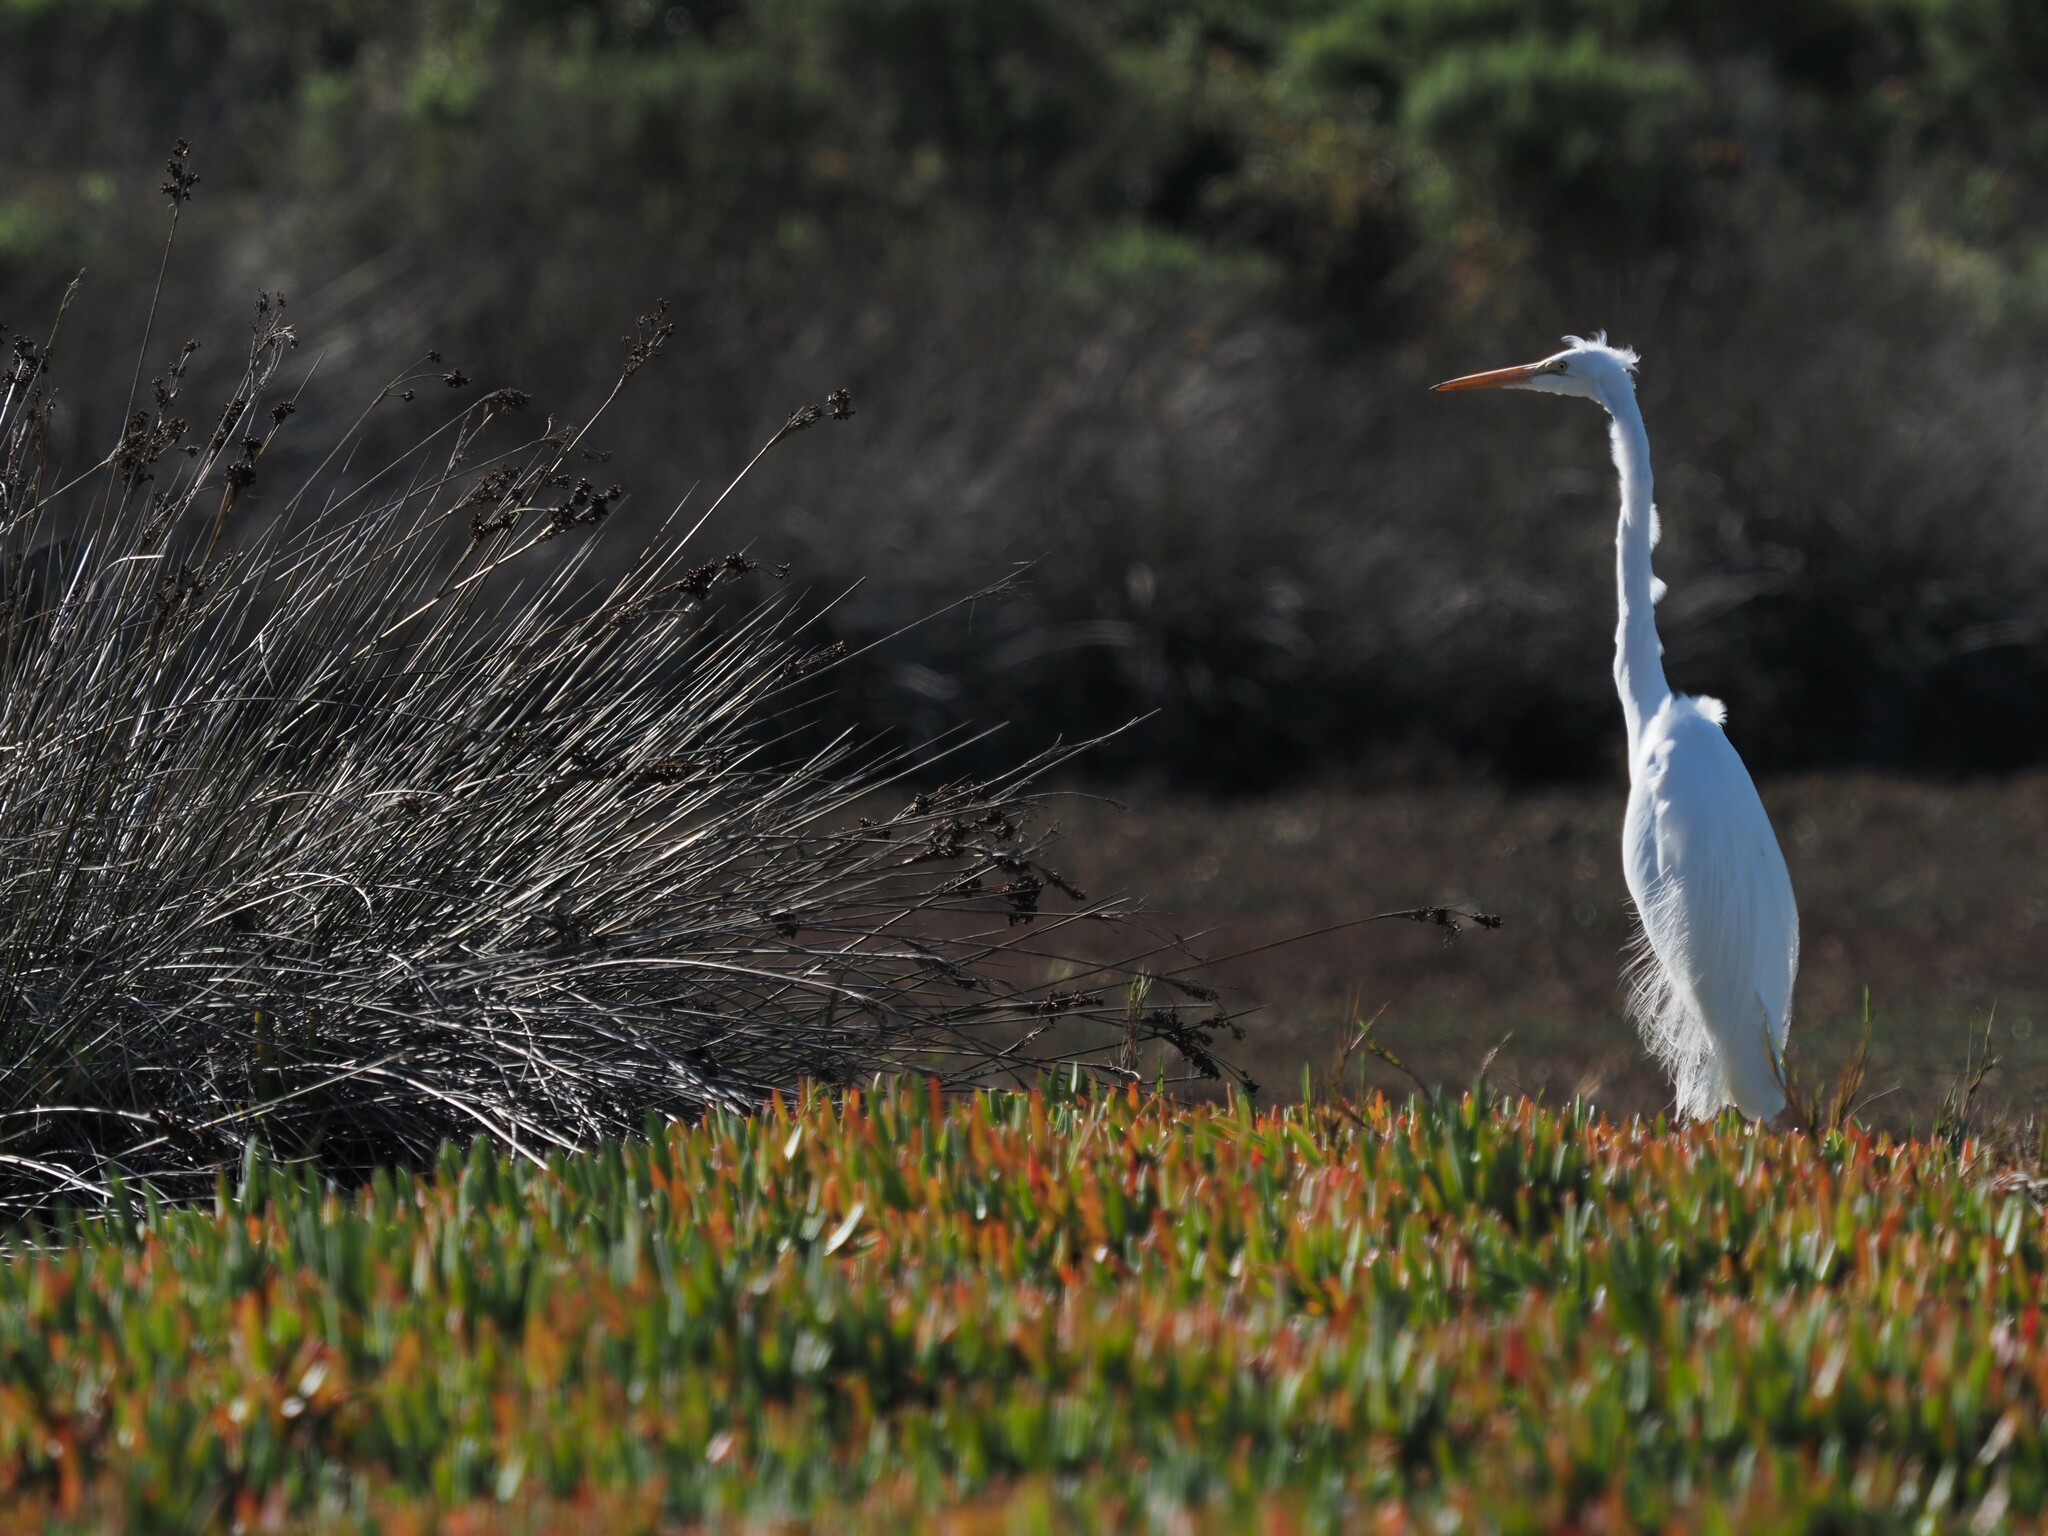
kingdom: Animalia
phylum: Chordata
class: Aves
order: Pelecaniformes
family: Ardeidae
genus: Ardea
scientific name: Ardea alba
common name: Great egret
